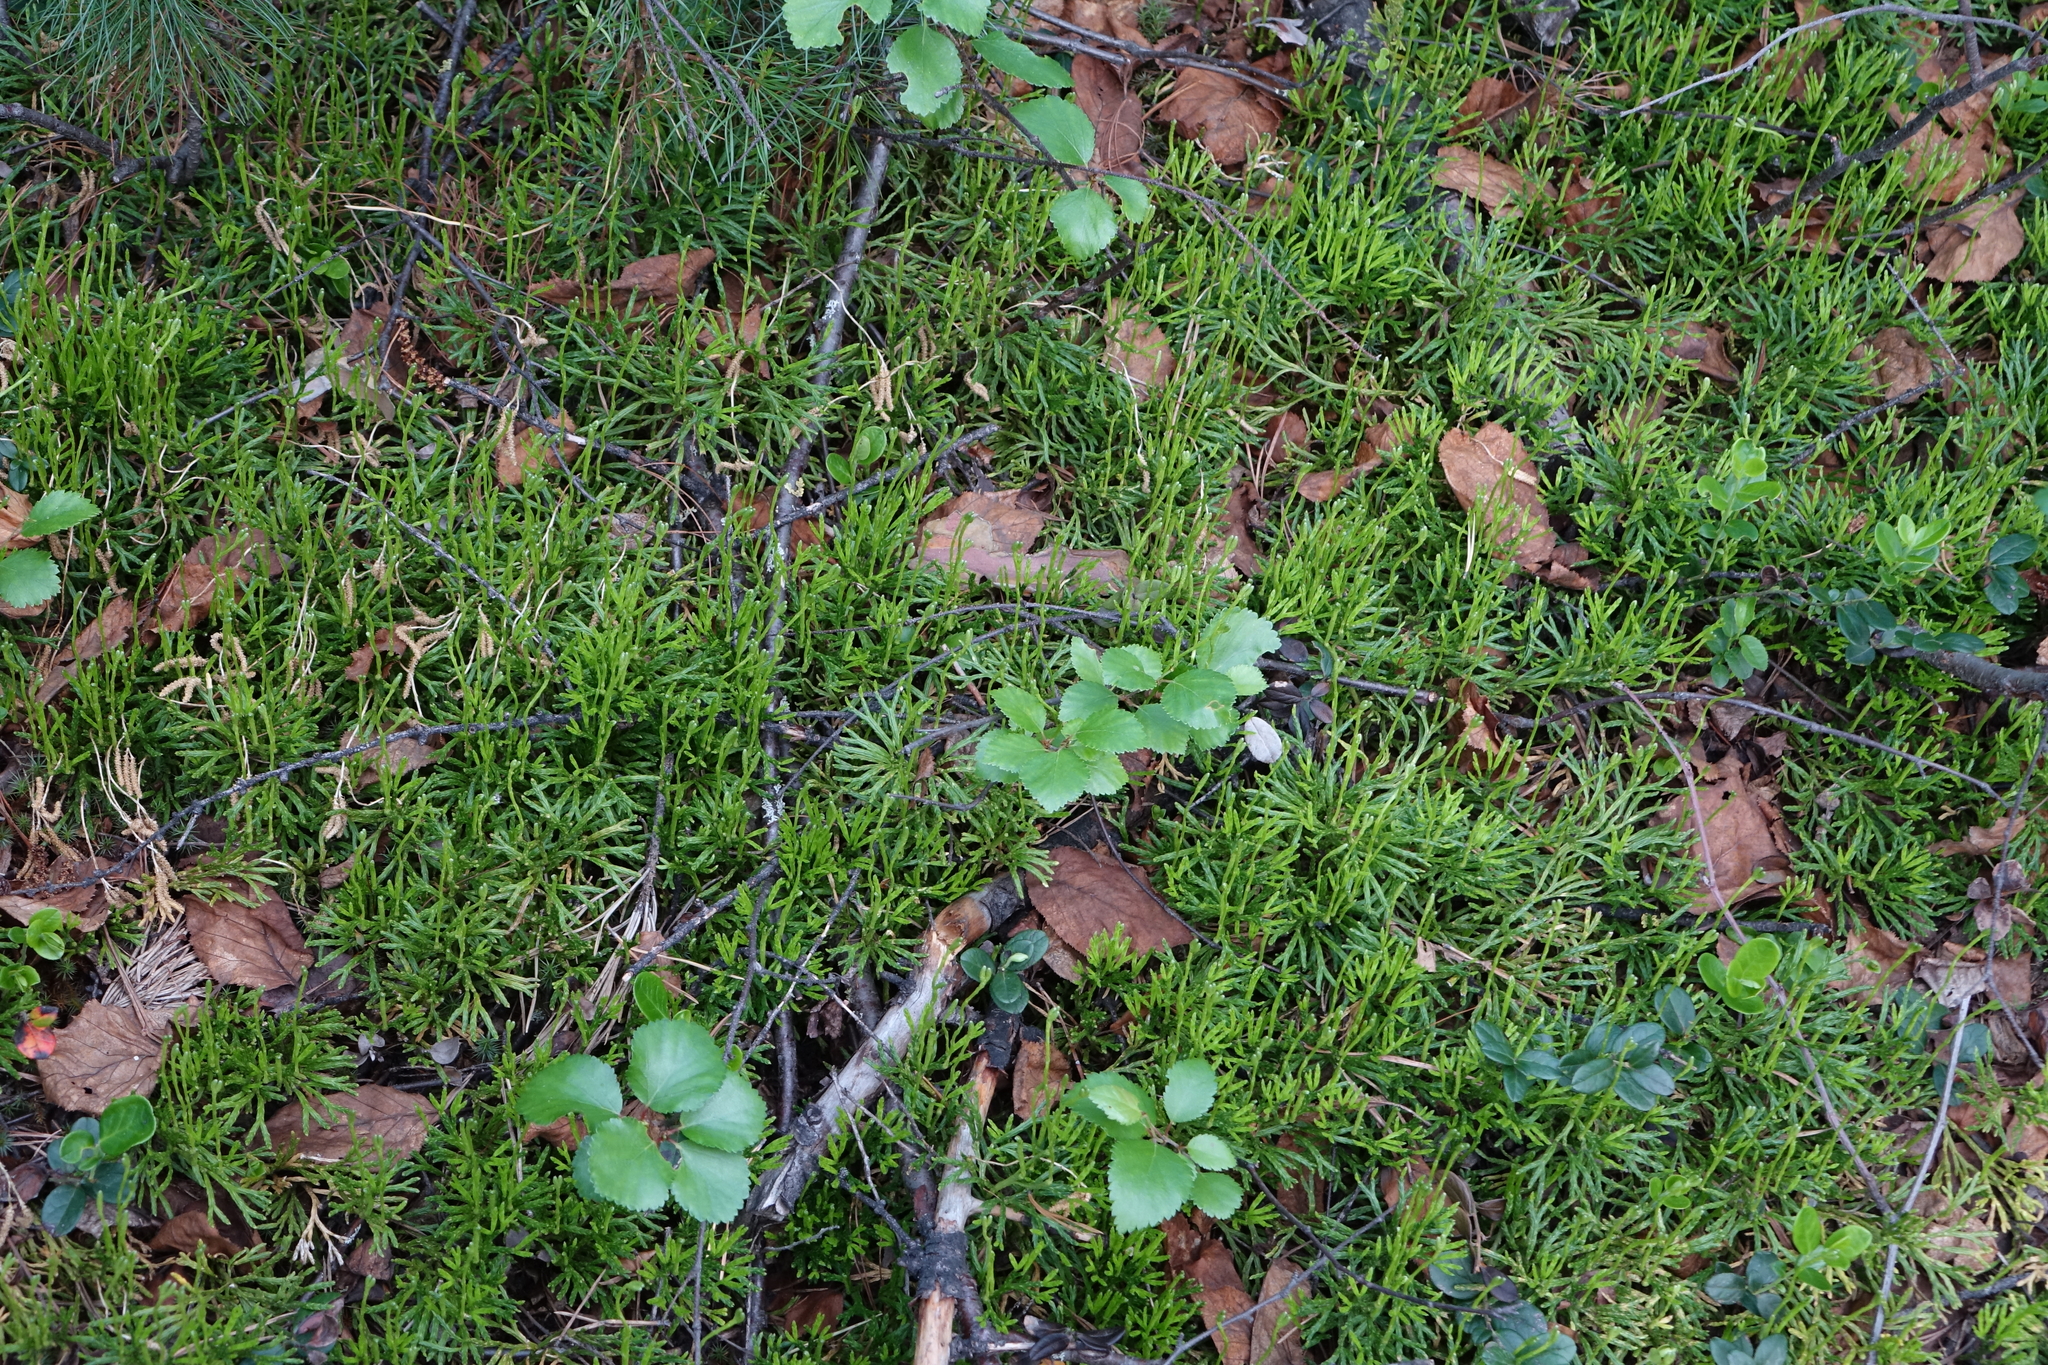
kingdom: Plantae
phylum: Tracheophyta
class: Lycopodiopsida
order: Lycopodiales
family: Lycopodiaceae
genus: Diphasiastrum
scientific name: Diphasiastrum complanatum
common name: Northern running-pine
